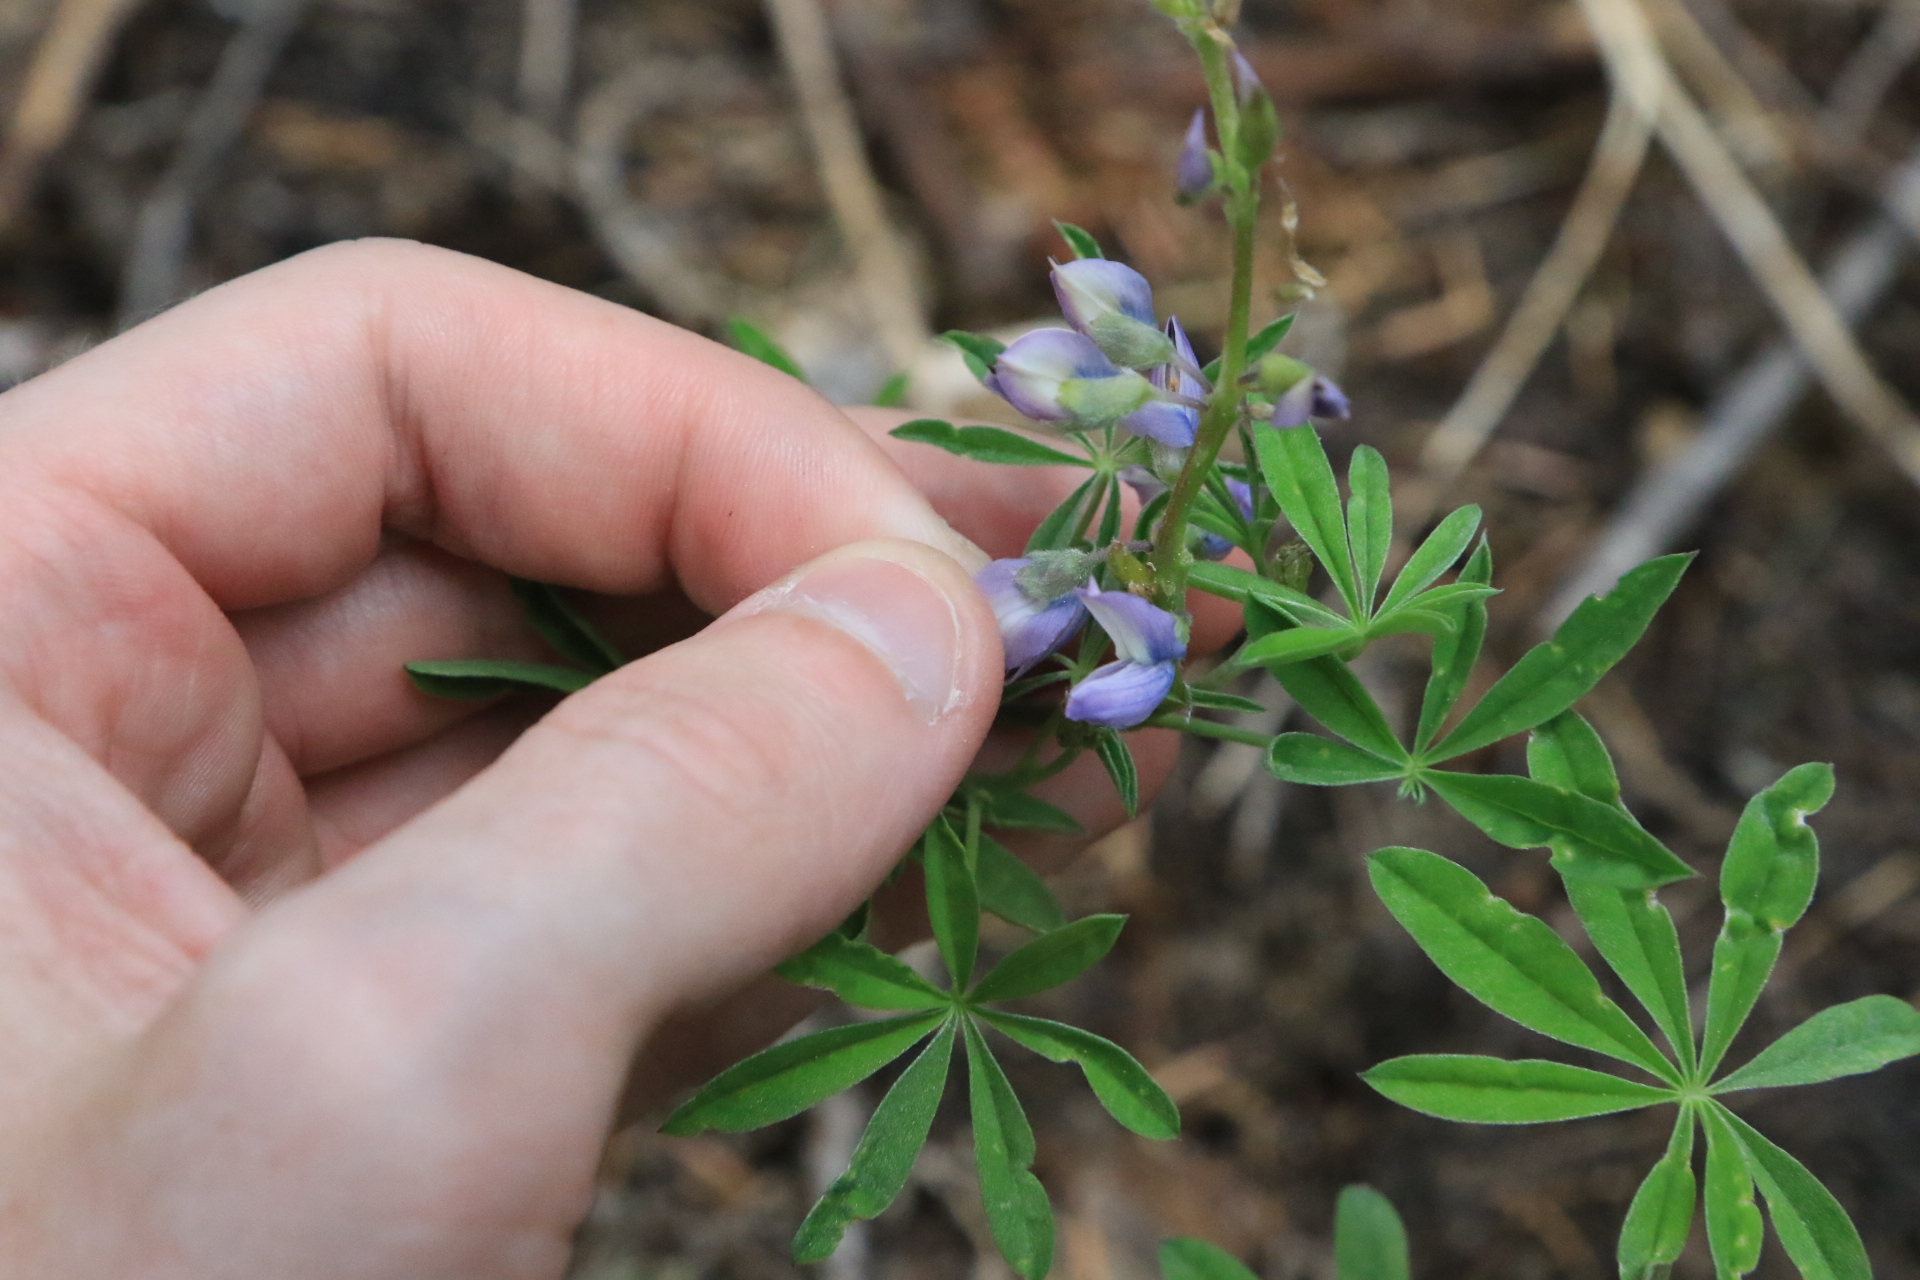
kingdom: Plantae
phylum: Tracheophyta
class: Magnoliopsida
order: Fabales
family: Fabaceae
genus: Lupinus
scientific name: Lupinus latifolius
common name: Broad-leaved lupine
